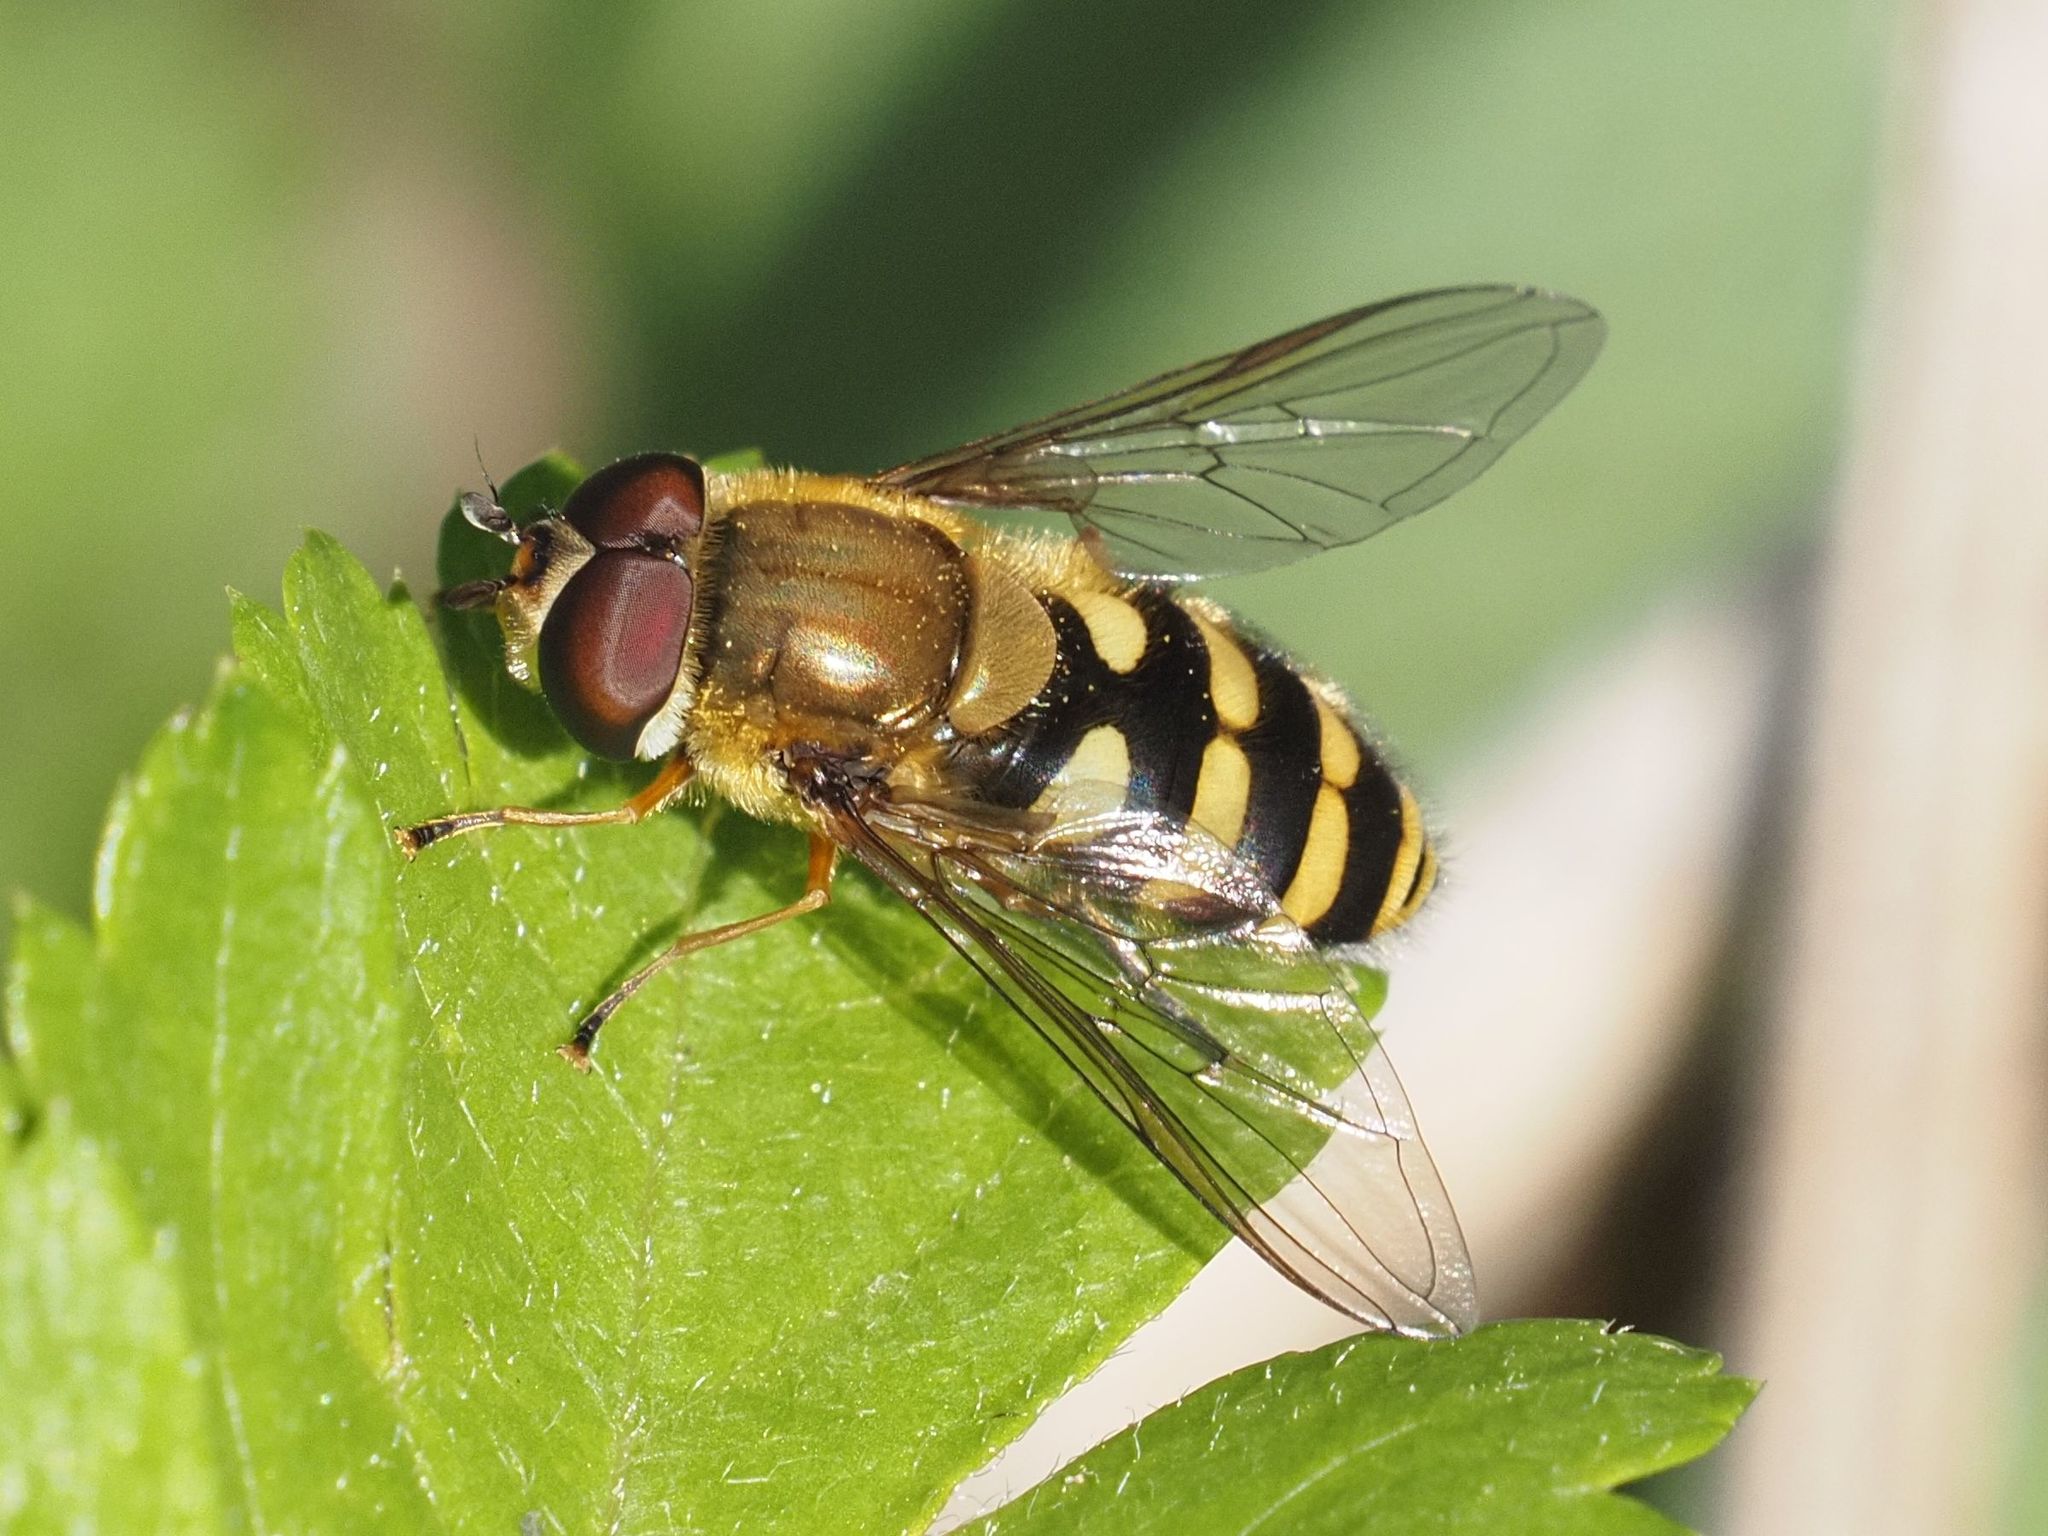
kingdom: Animalia
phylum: Arthropoda
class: Insecta
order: Diptera
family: Syrphidae
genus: Syrphus
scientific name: Syrphus torvus
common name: Hairy-eyed flower fly
